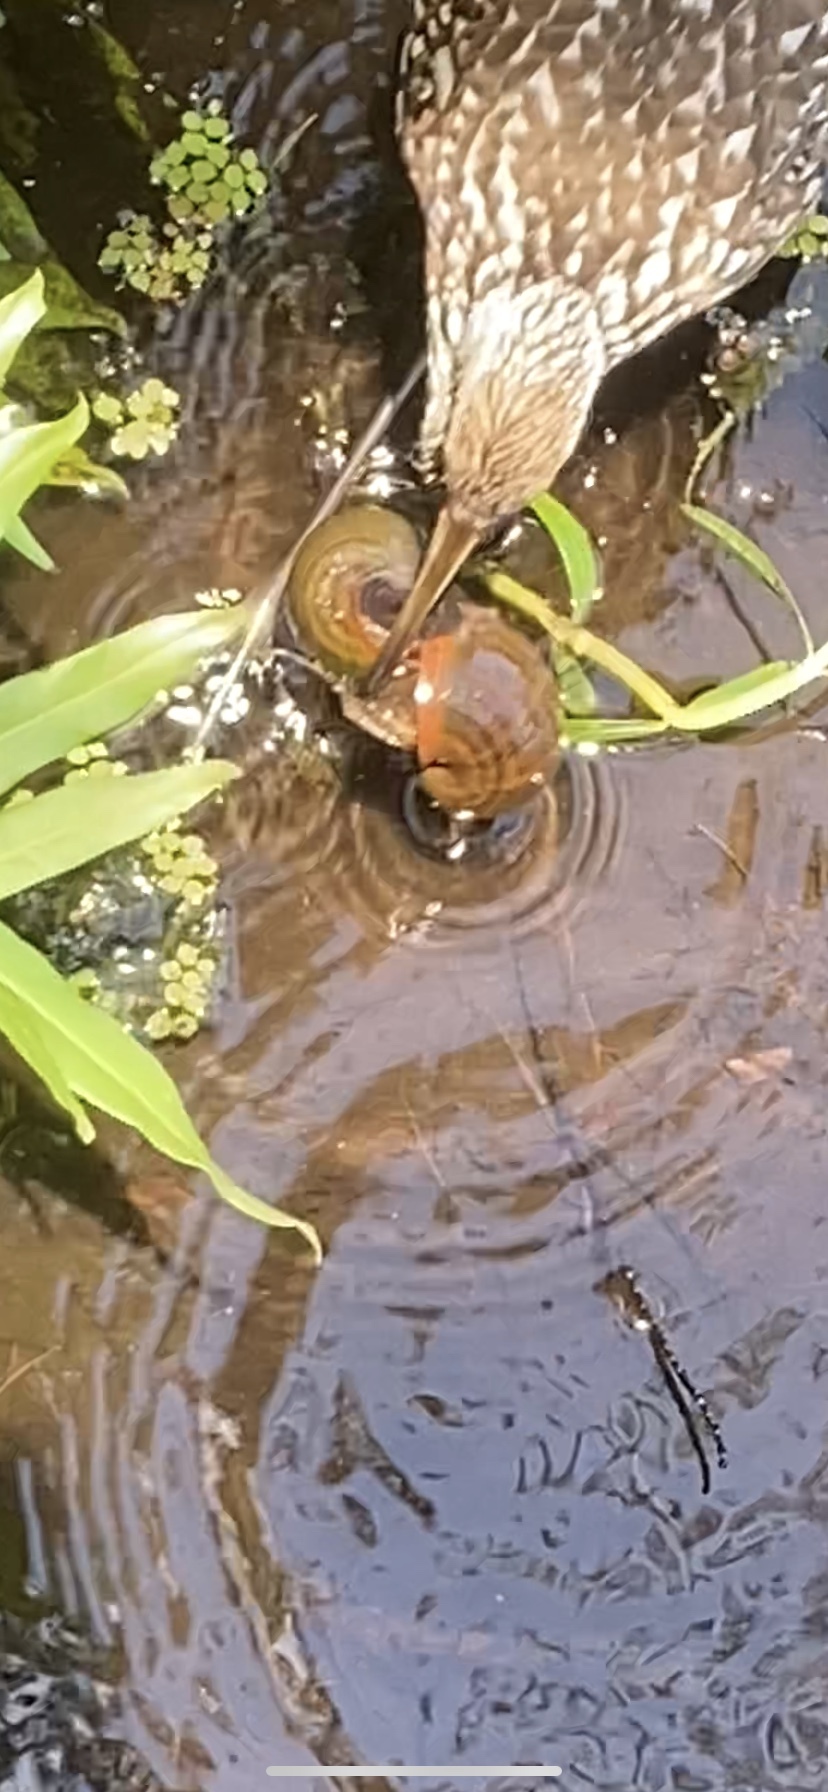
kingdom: Animalia
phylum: Chordata
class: Aves
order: Gruiformes
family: Aramidae
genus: Aramus
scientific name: Aramus guarauna
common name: Limpkin
